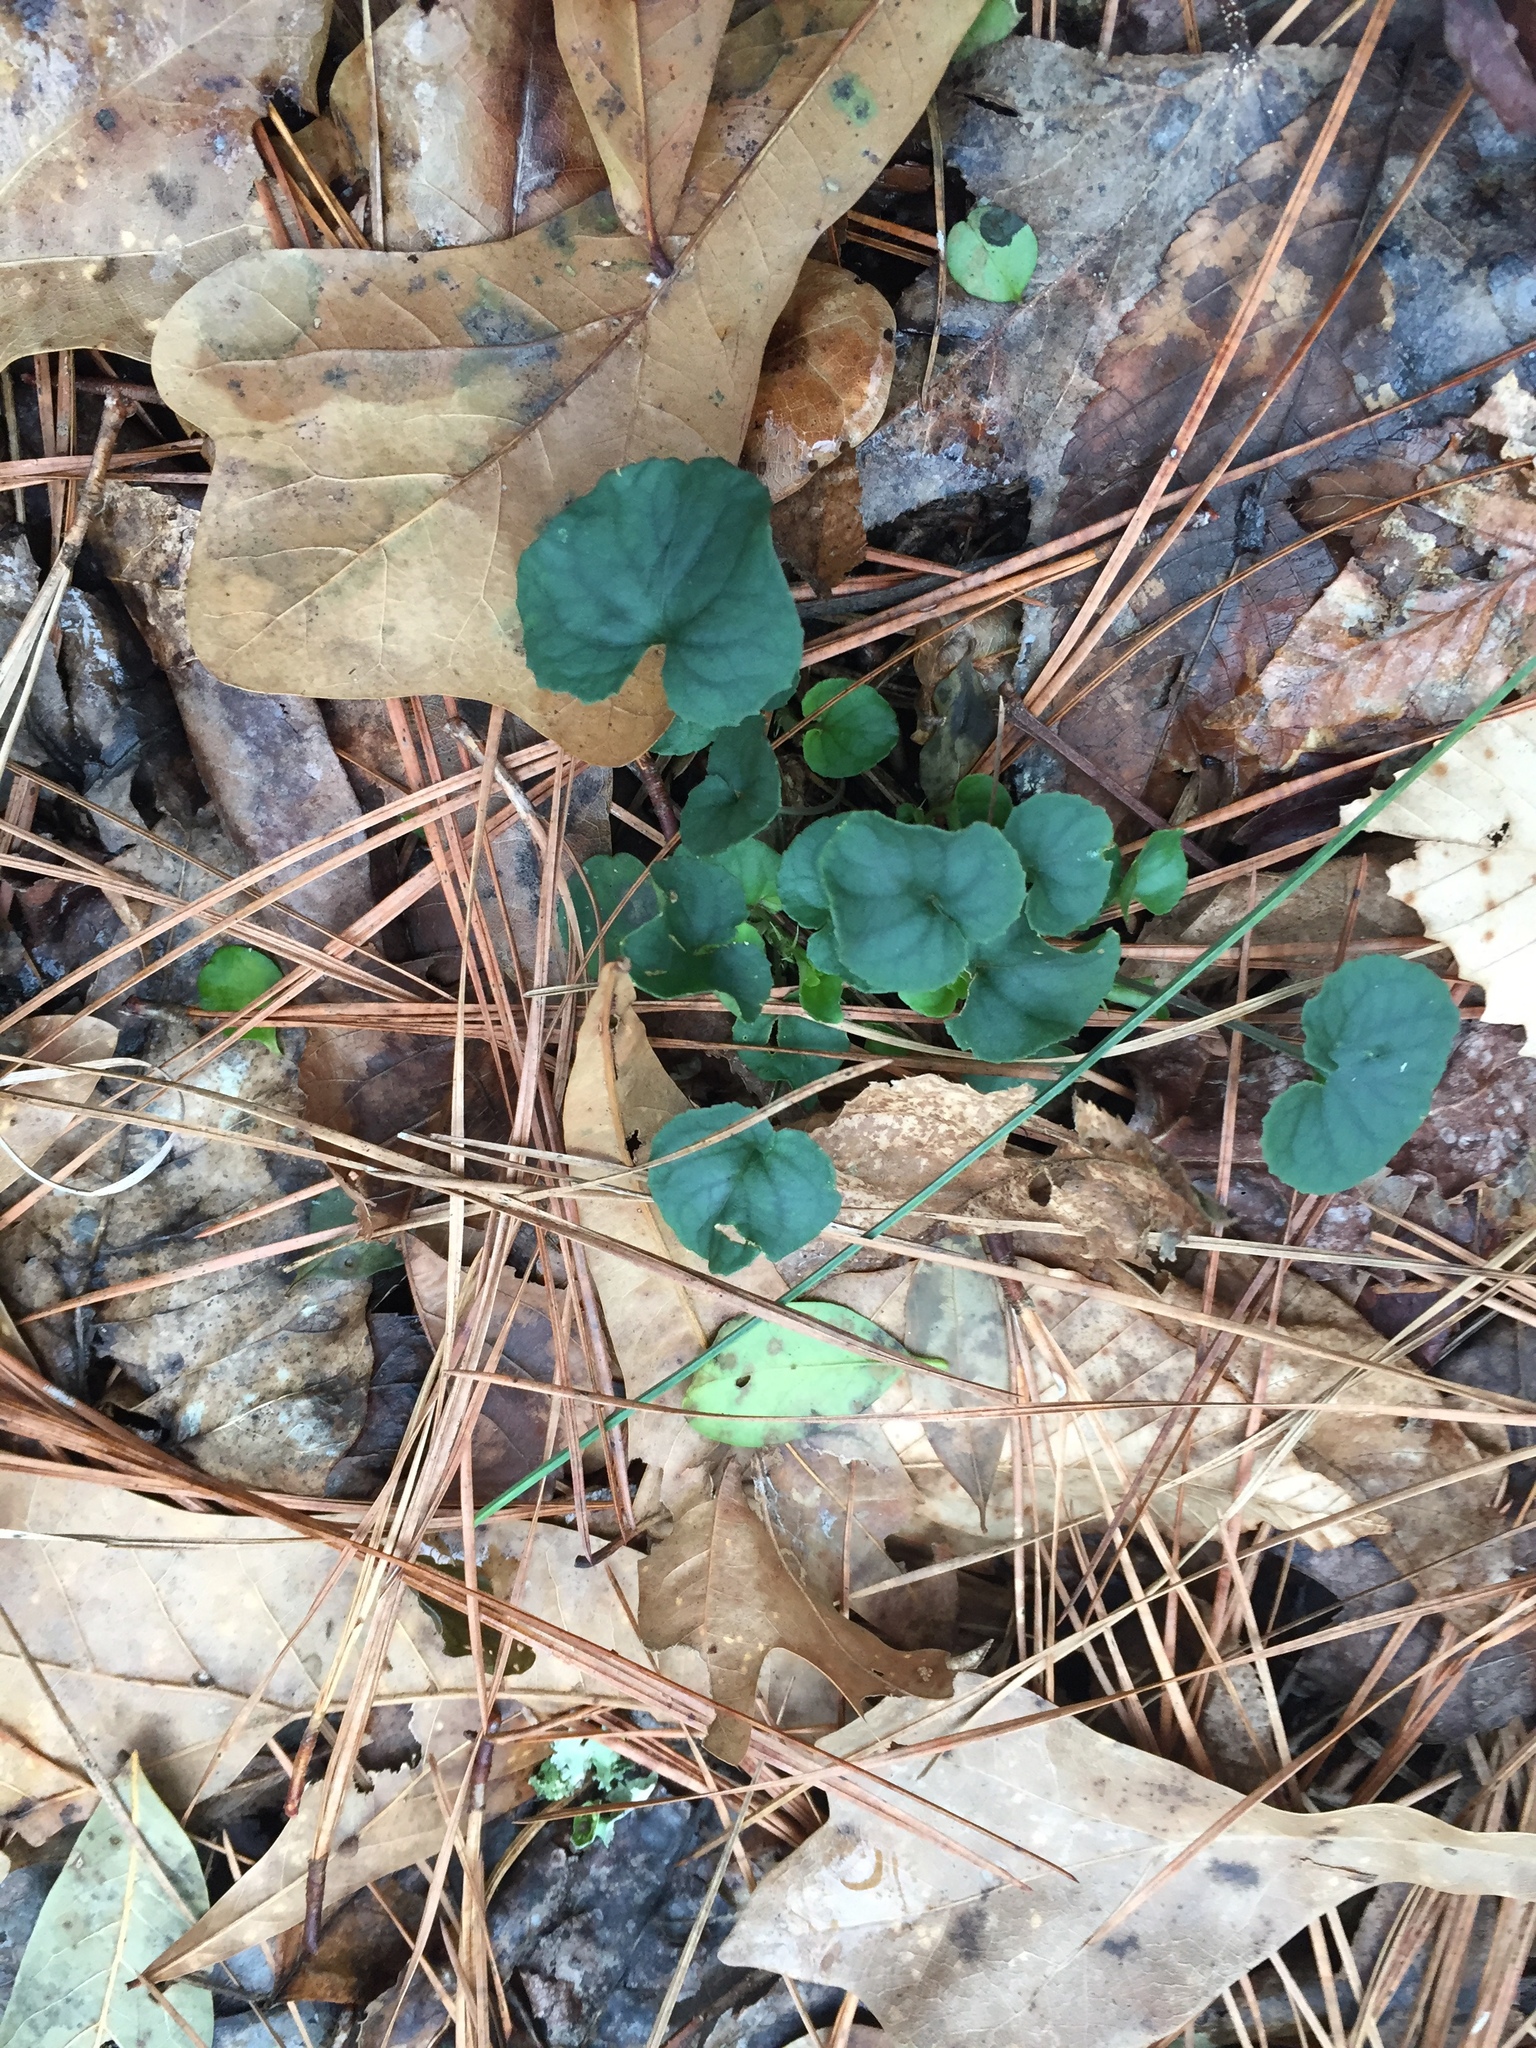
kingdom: Plantae
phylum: Tracheophyta
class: Magnoliopsida
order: Malpighiales
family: Violaceae
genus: Viola
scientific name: Viola walteri
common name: Prostrate southern violet
